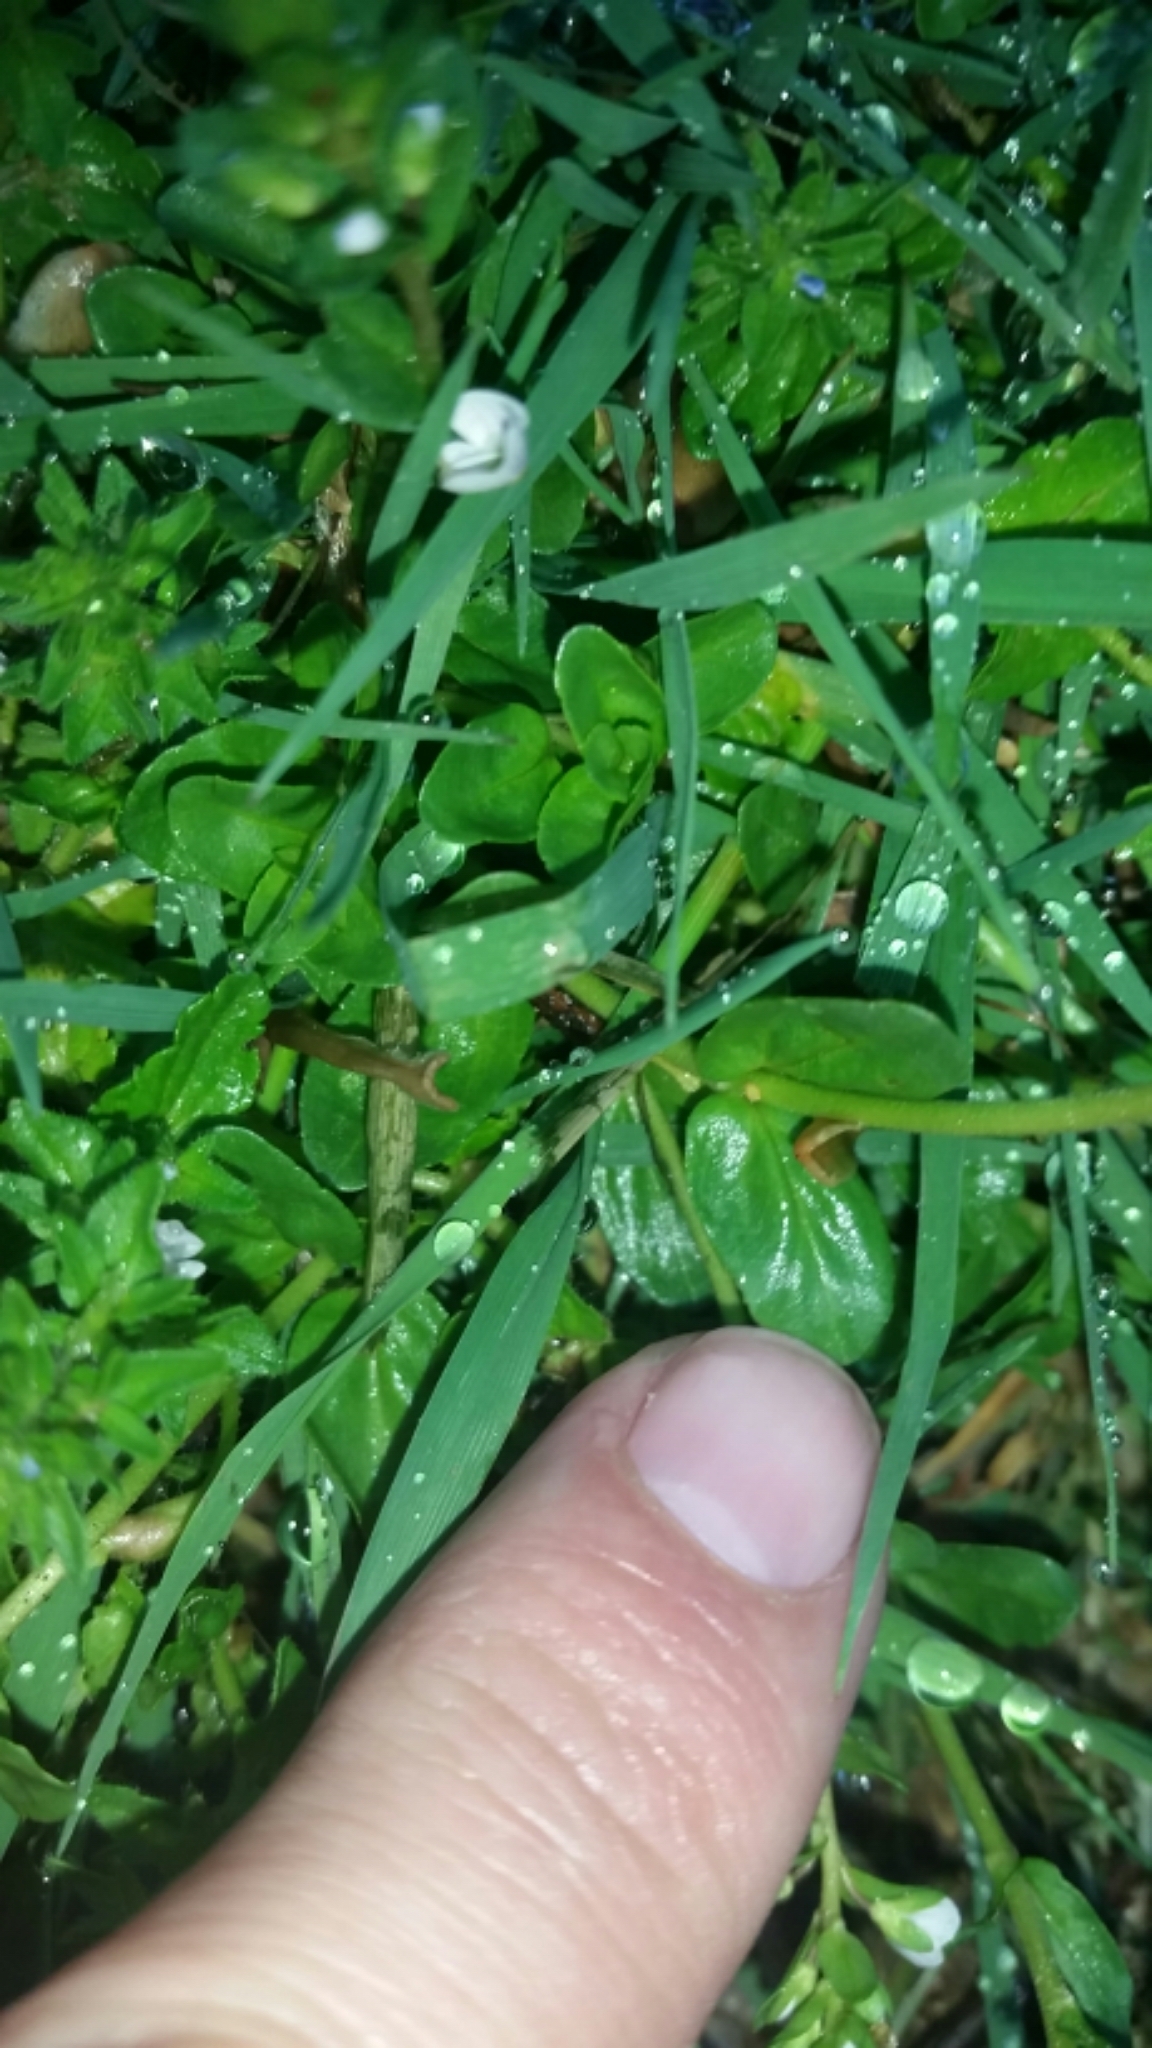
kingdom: Plantae
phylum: Tracheophyta
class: Magnoliopsida
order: Lamiales
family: Plantaginaceae
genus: Veronica
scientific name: Veronica serpyllifolia
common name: Thyme-leaved speedwell
